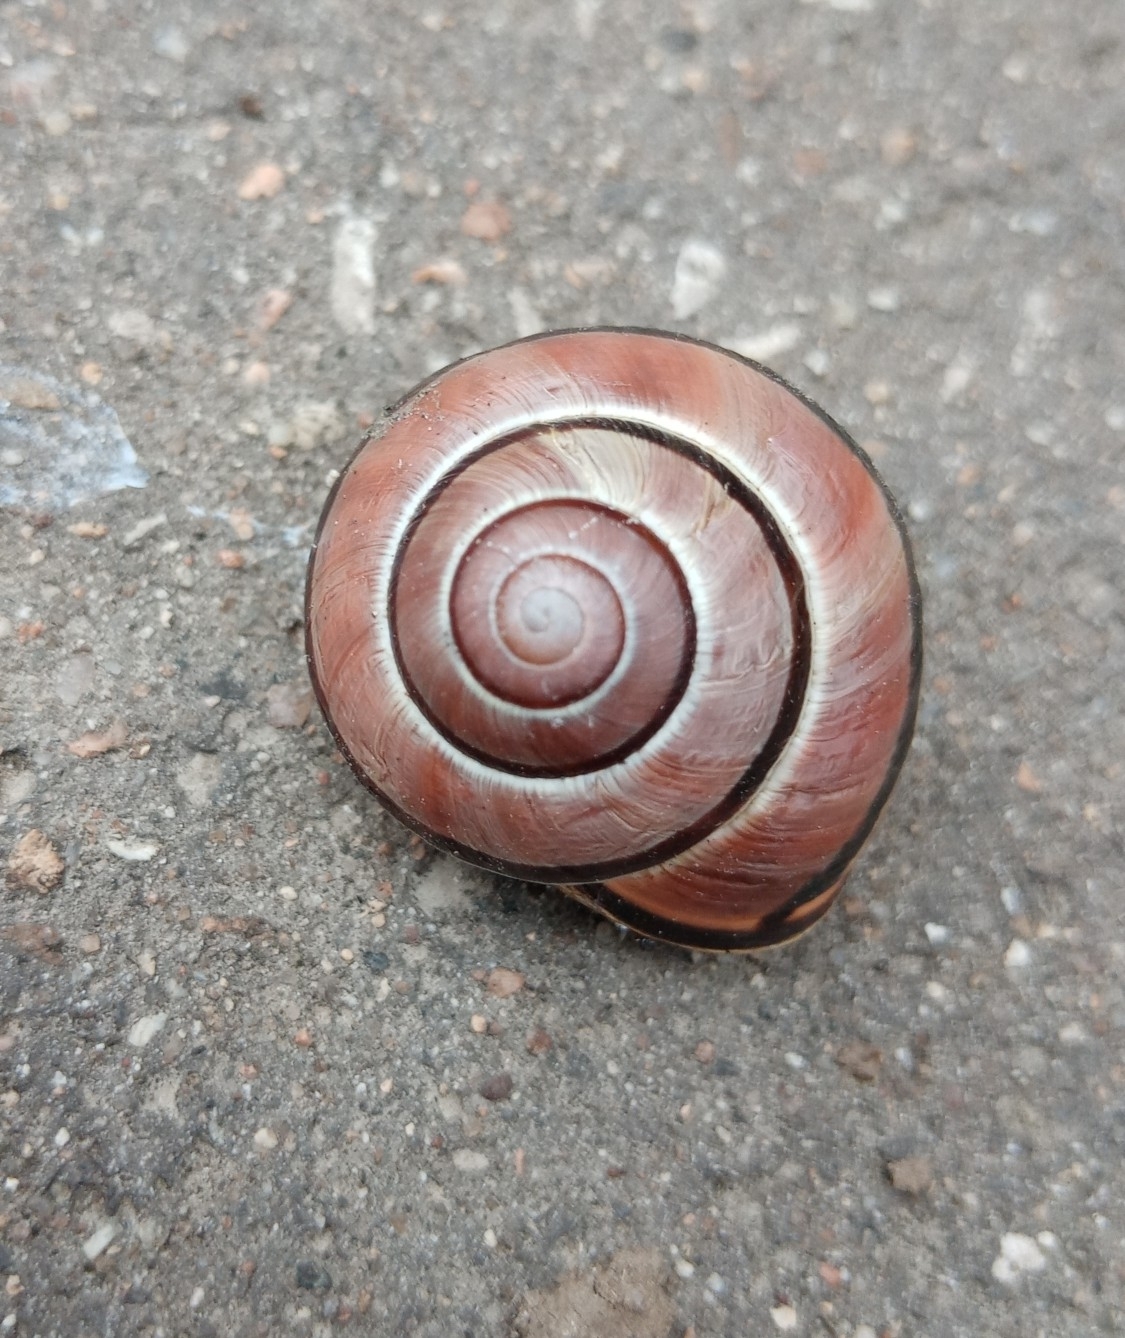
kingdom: Animalia
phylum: Mollusca
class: Gastropoda
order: Stylommatophora
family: Helicidae
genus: Cepaea
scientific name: Cepaea nemoralis
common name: Grovesnail
